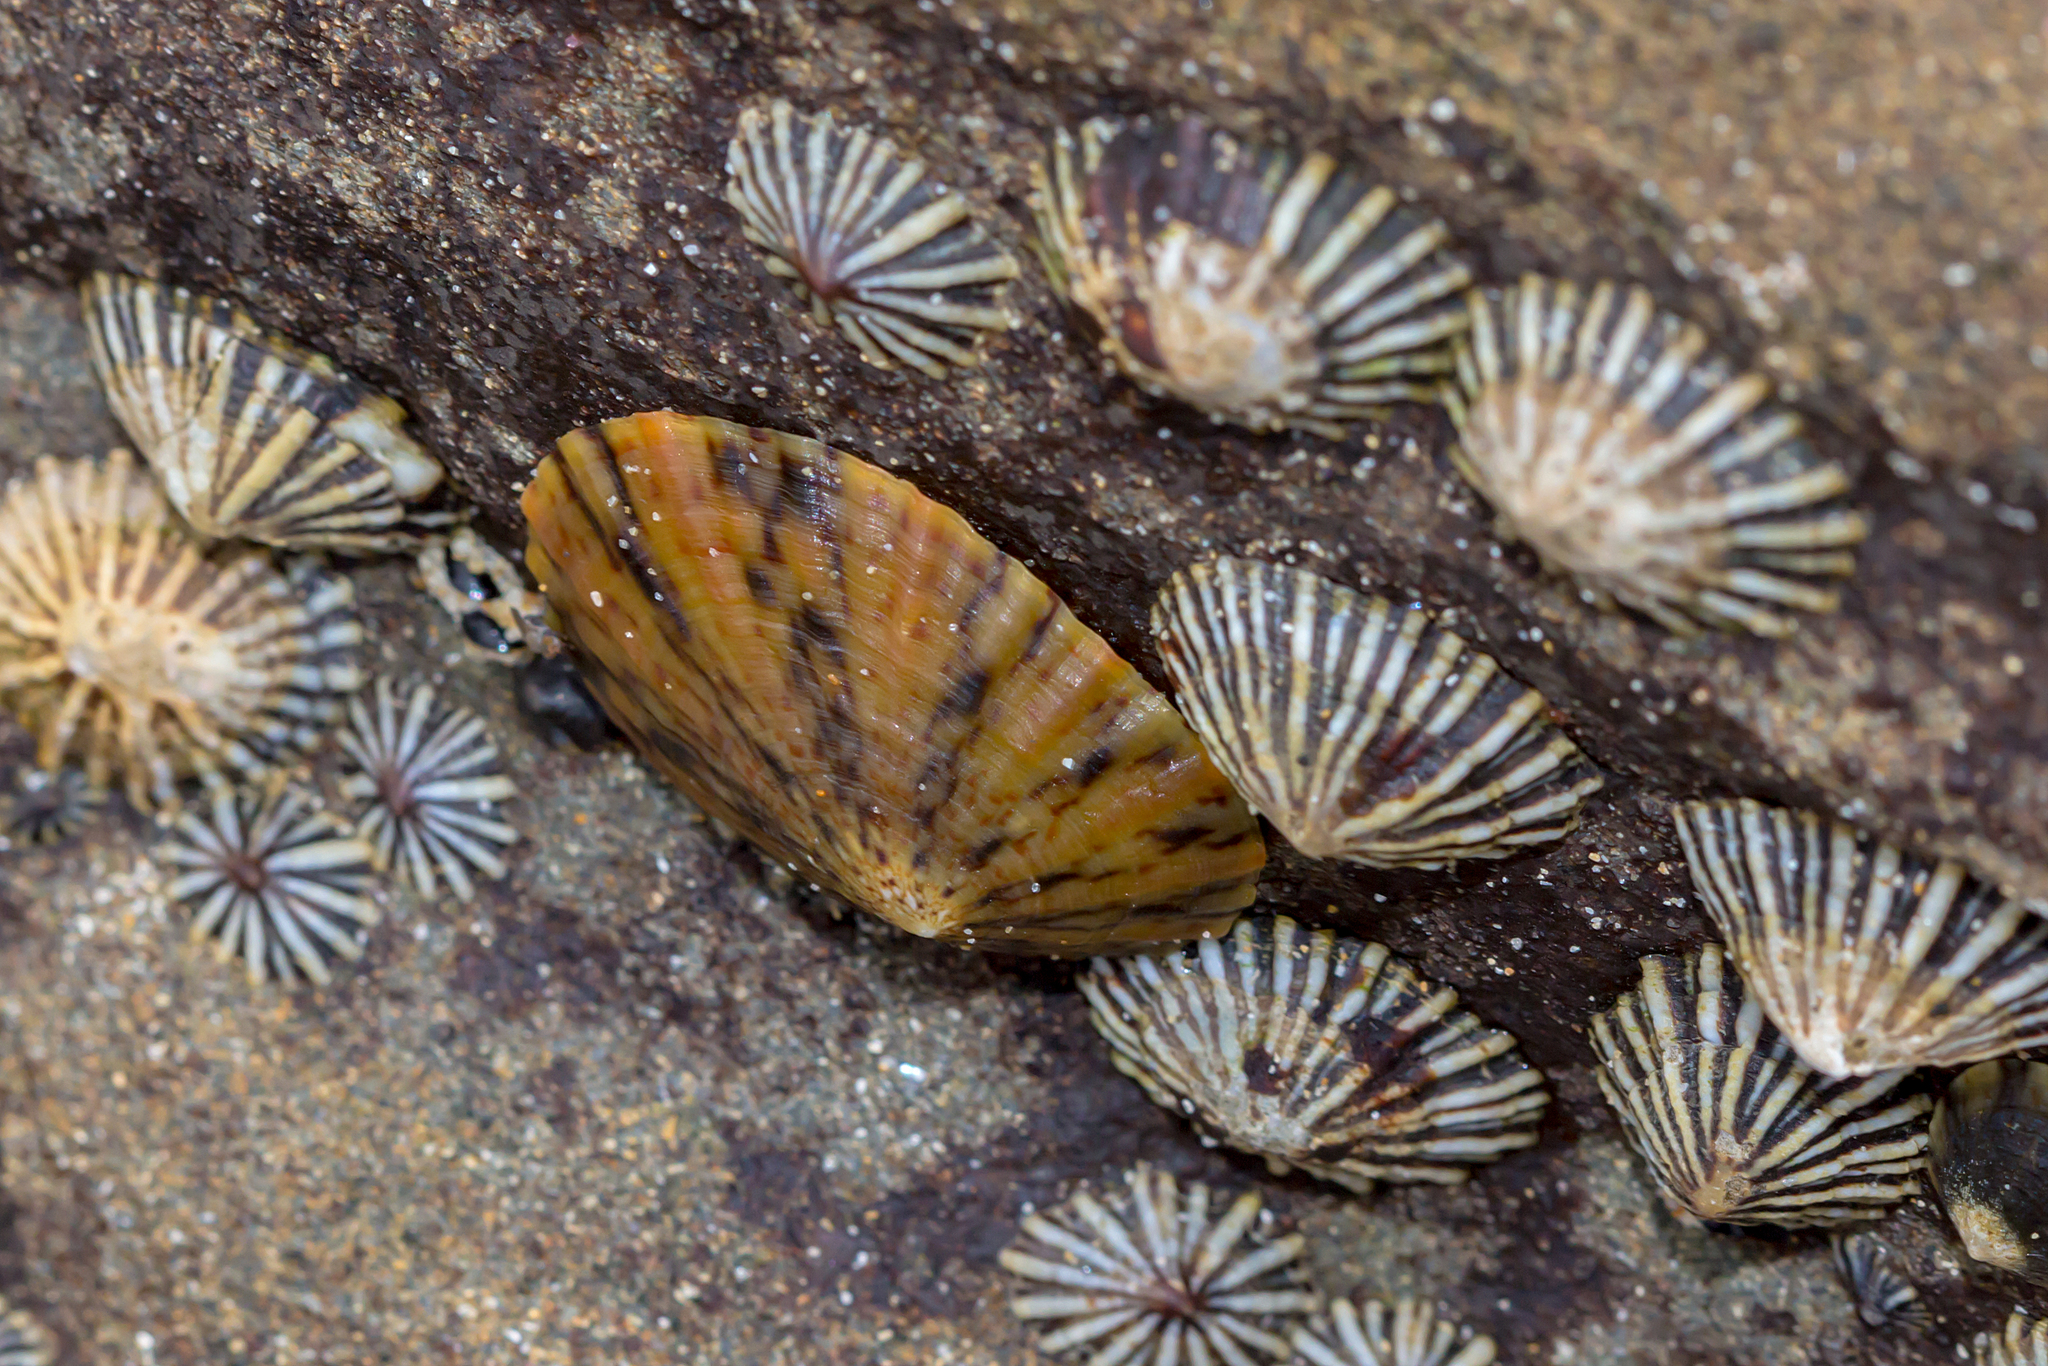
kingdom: Animalia
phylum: Mollusca
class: Gastropoda
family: Nacellidae
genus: Cellana
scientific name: Cellana tramoserica
